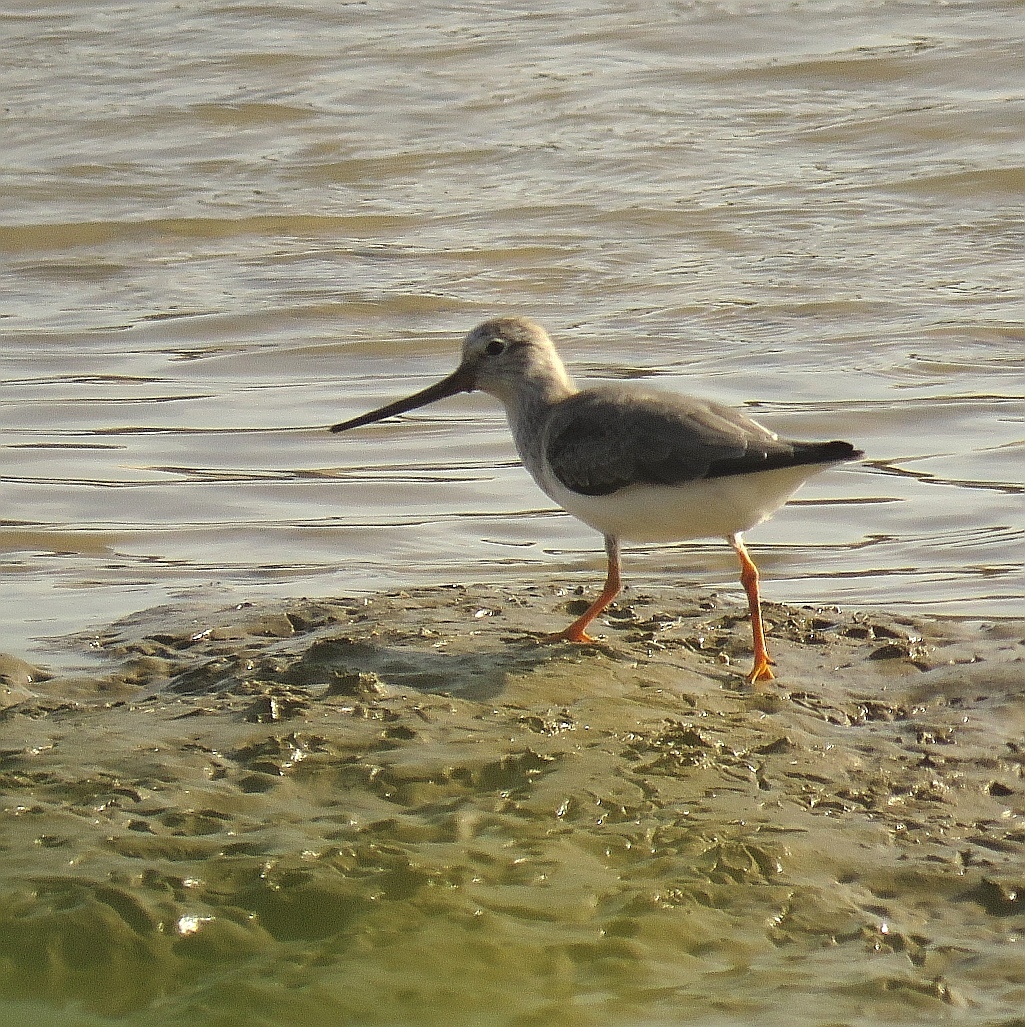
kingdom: Animalia
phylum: Chordata
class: Aves
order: Charadriiformes
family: Scolopacidae
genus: Xenus
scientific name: Xenus cinereus
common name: Terek sandpiper
